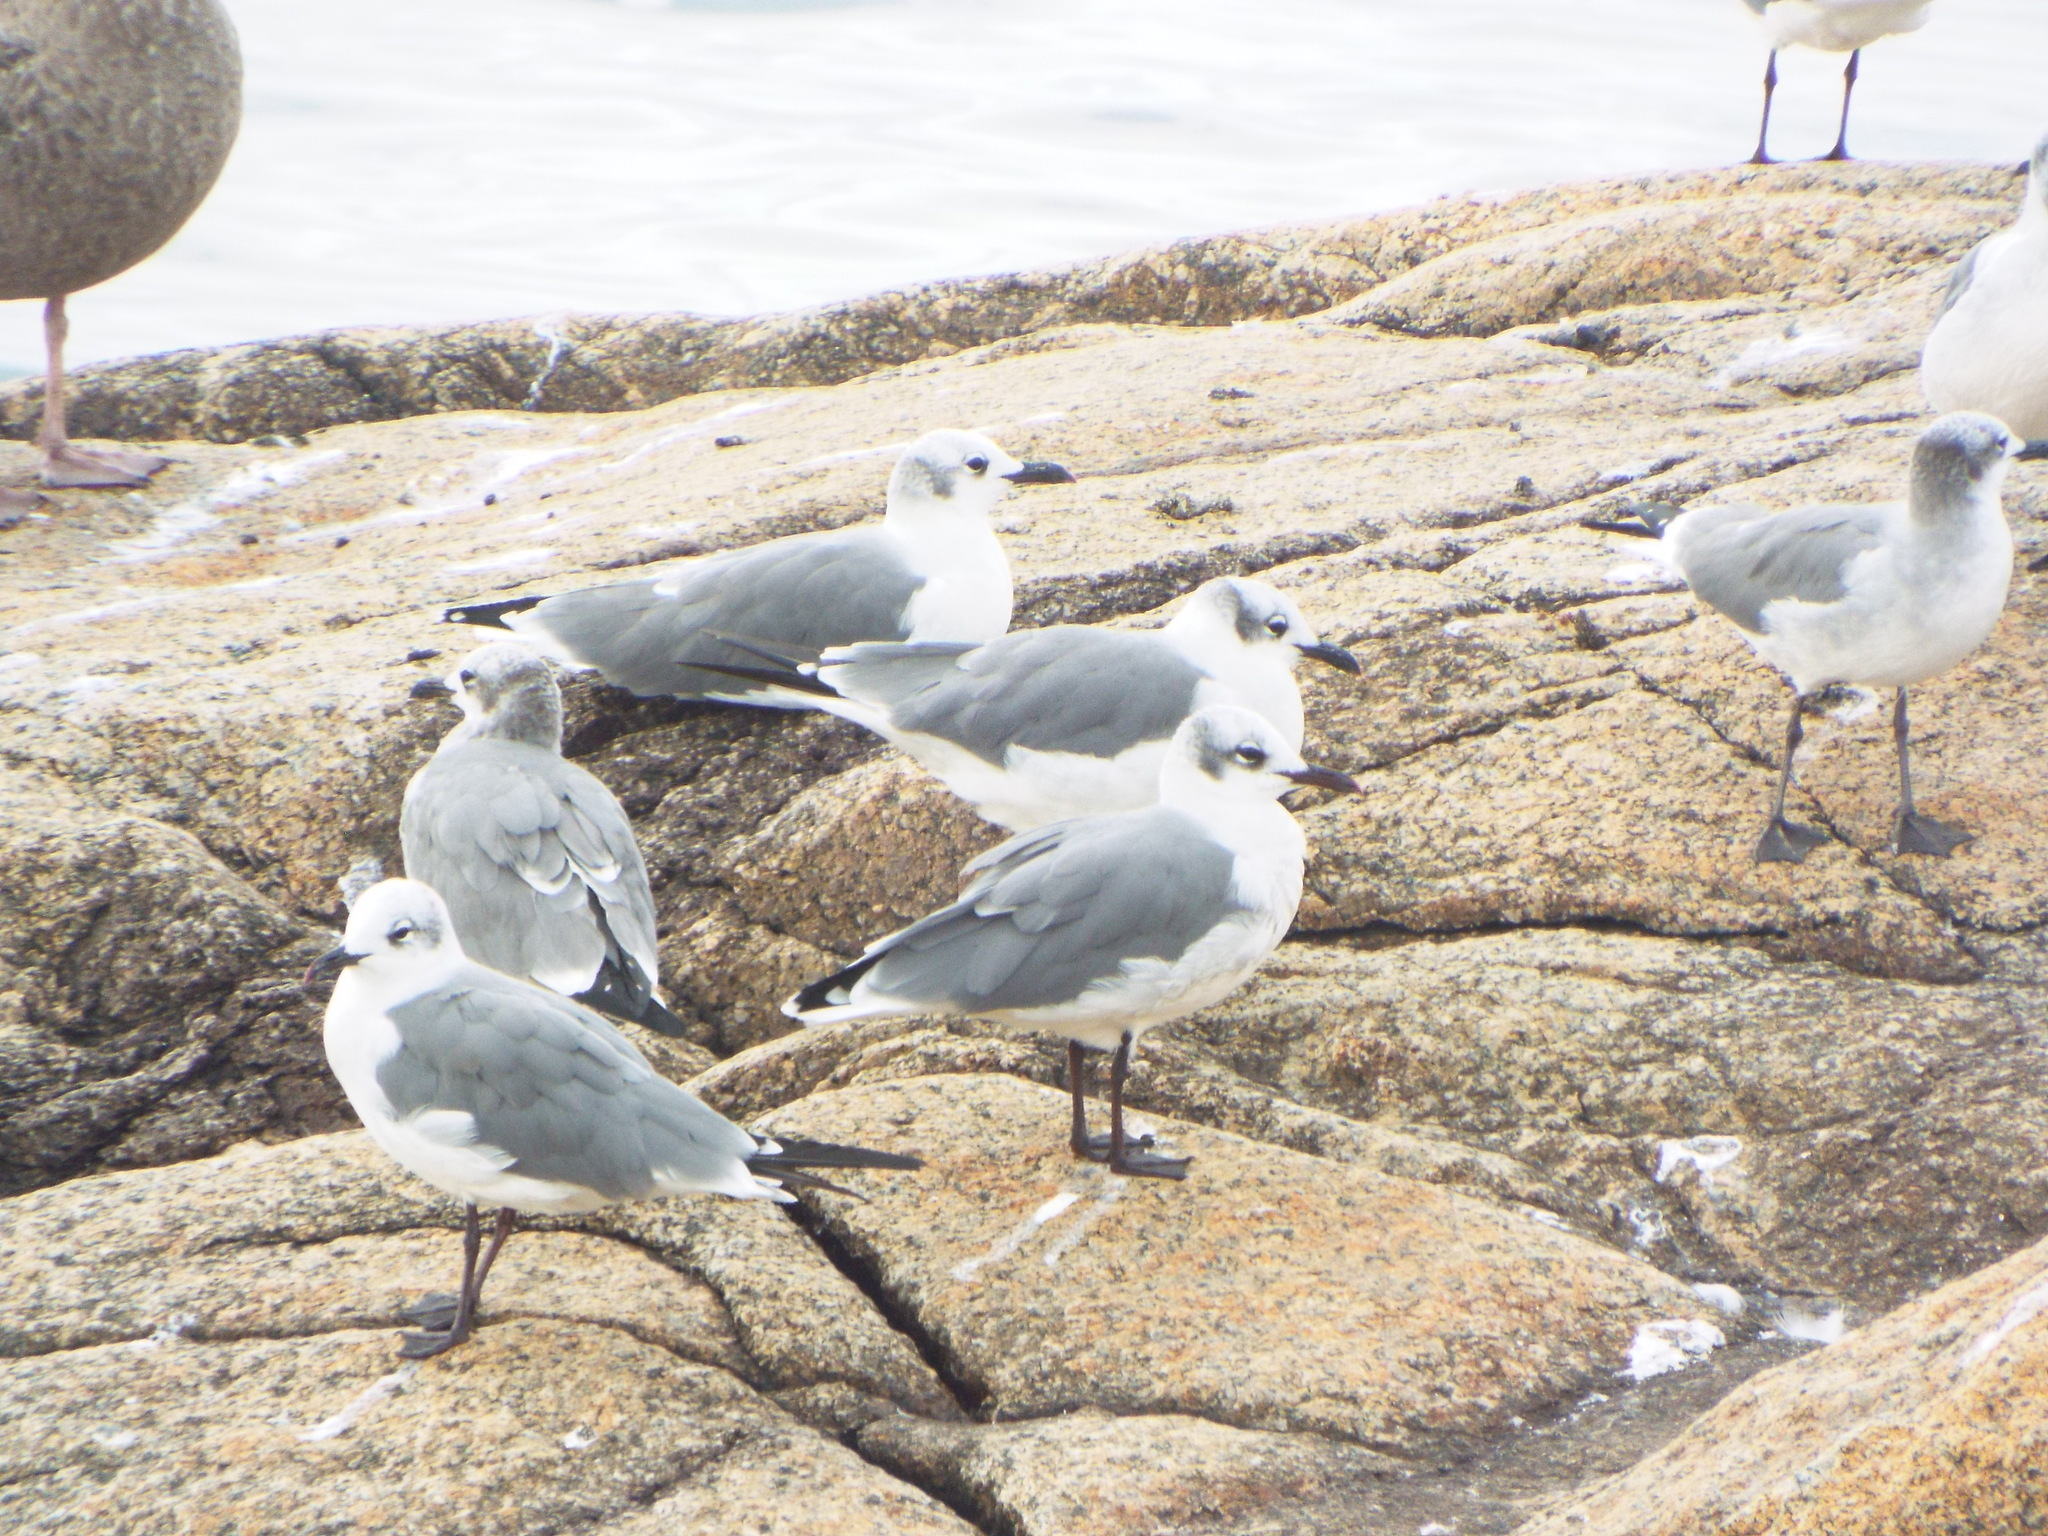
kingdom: Animalia
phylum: Chordata
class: Aves
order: Charadriiformes
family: Laridae
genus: Leucophaeus
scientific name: Leucophaeus atricilla
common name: Laughing gull
